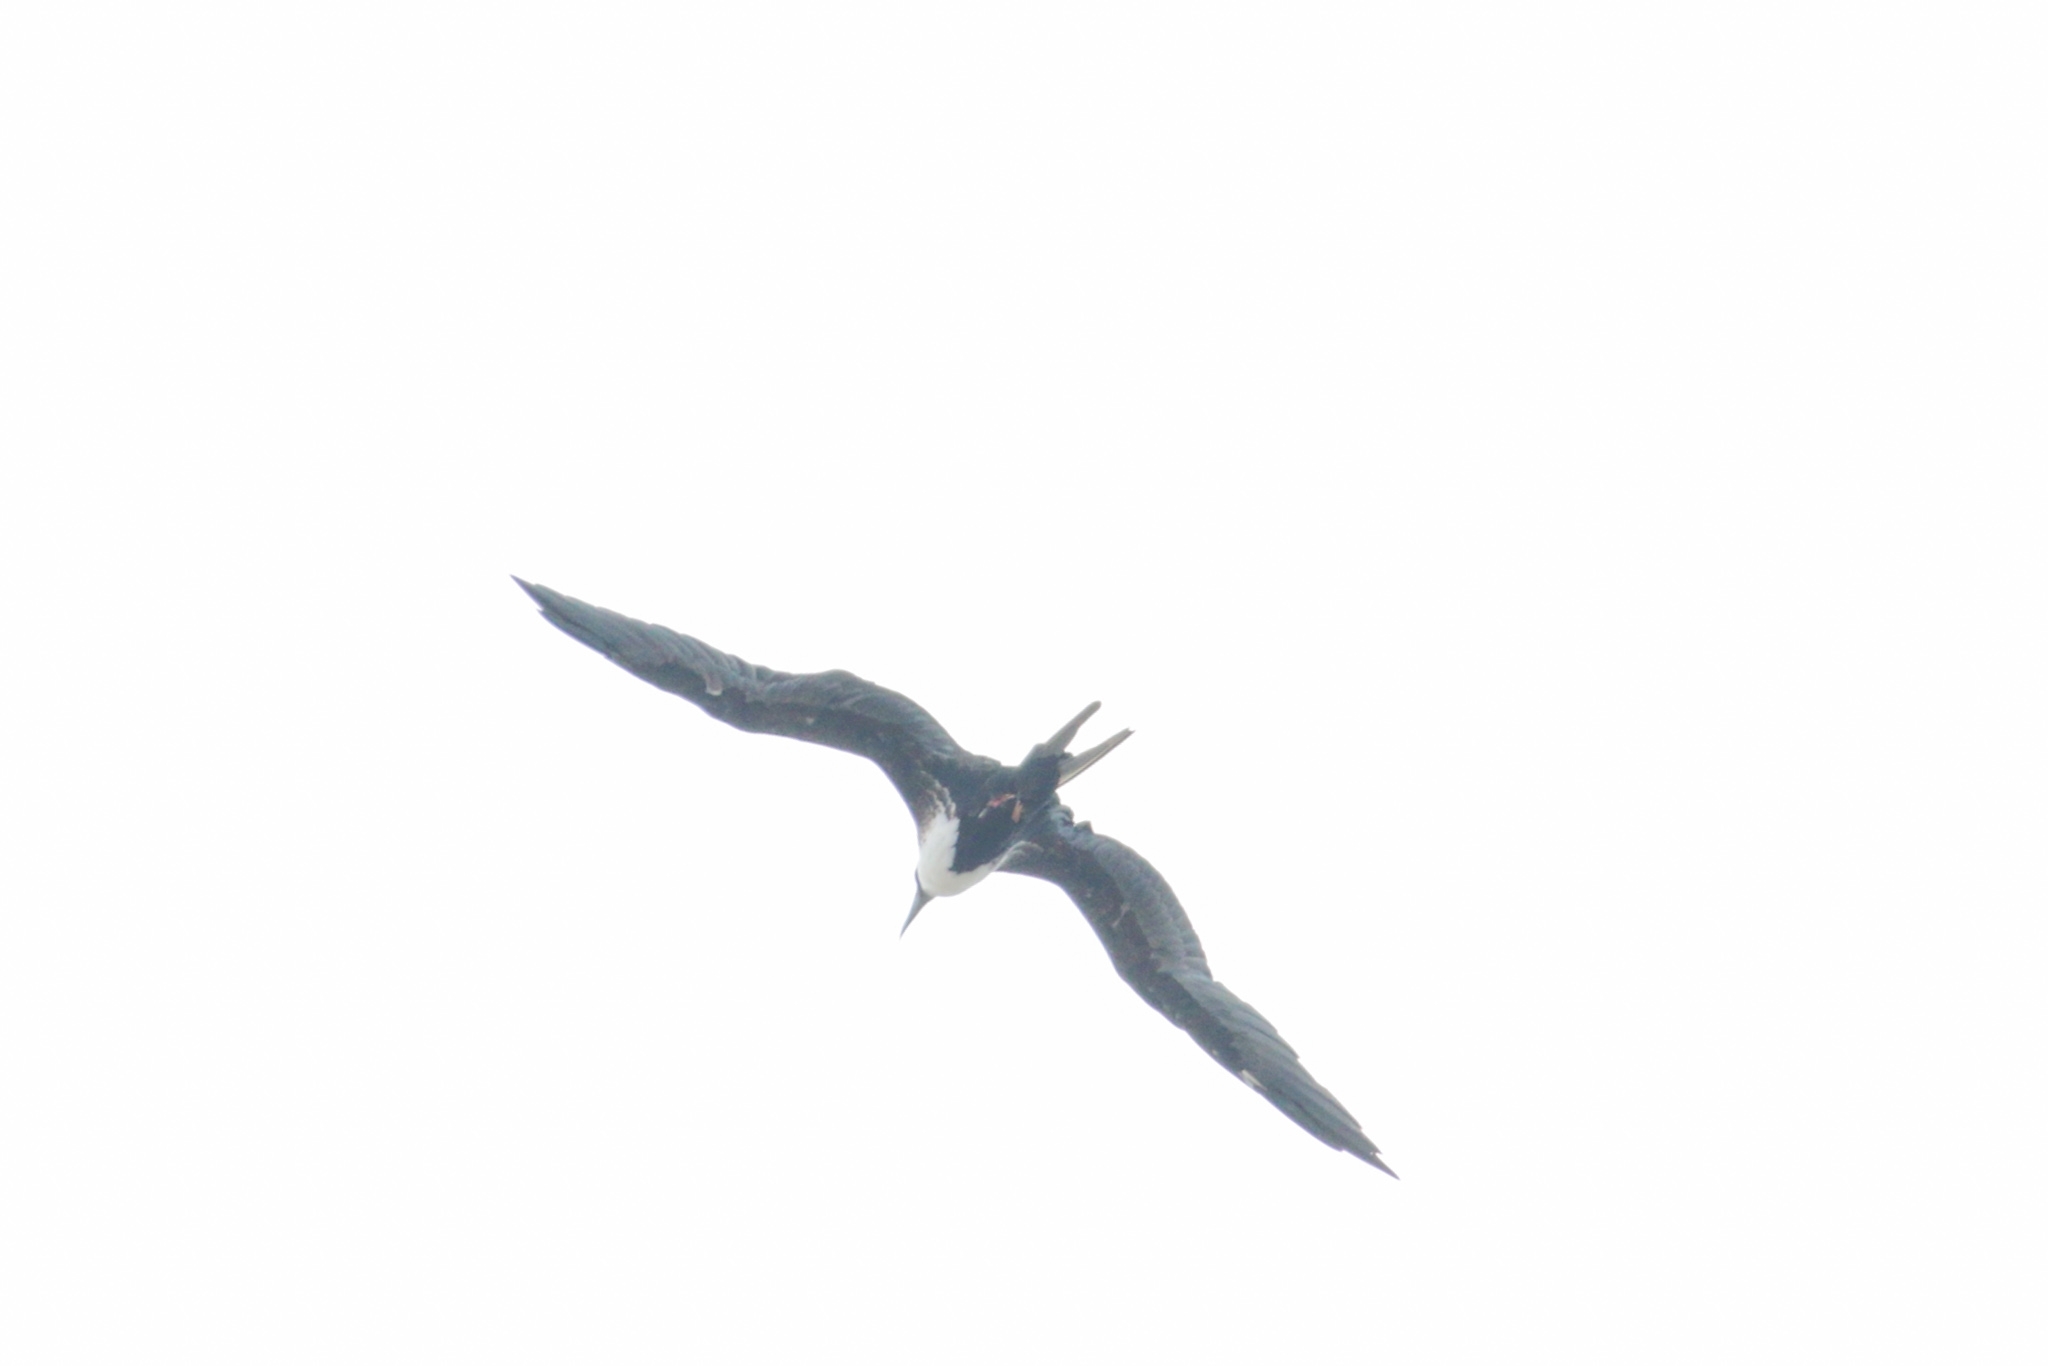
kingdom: Animalia
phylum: Chordata
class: Aves
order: Suliformes
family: Fregatidae
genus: Fregata
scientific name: Fregata magnificens
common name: Magnificent frigatebird
